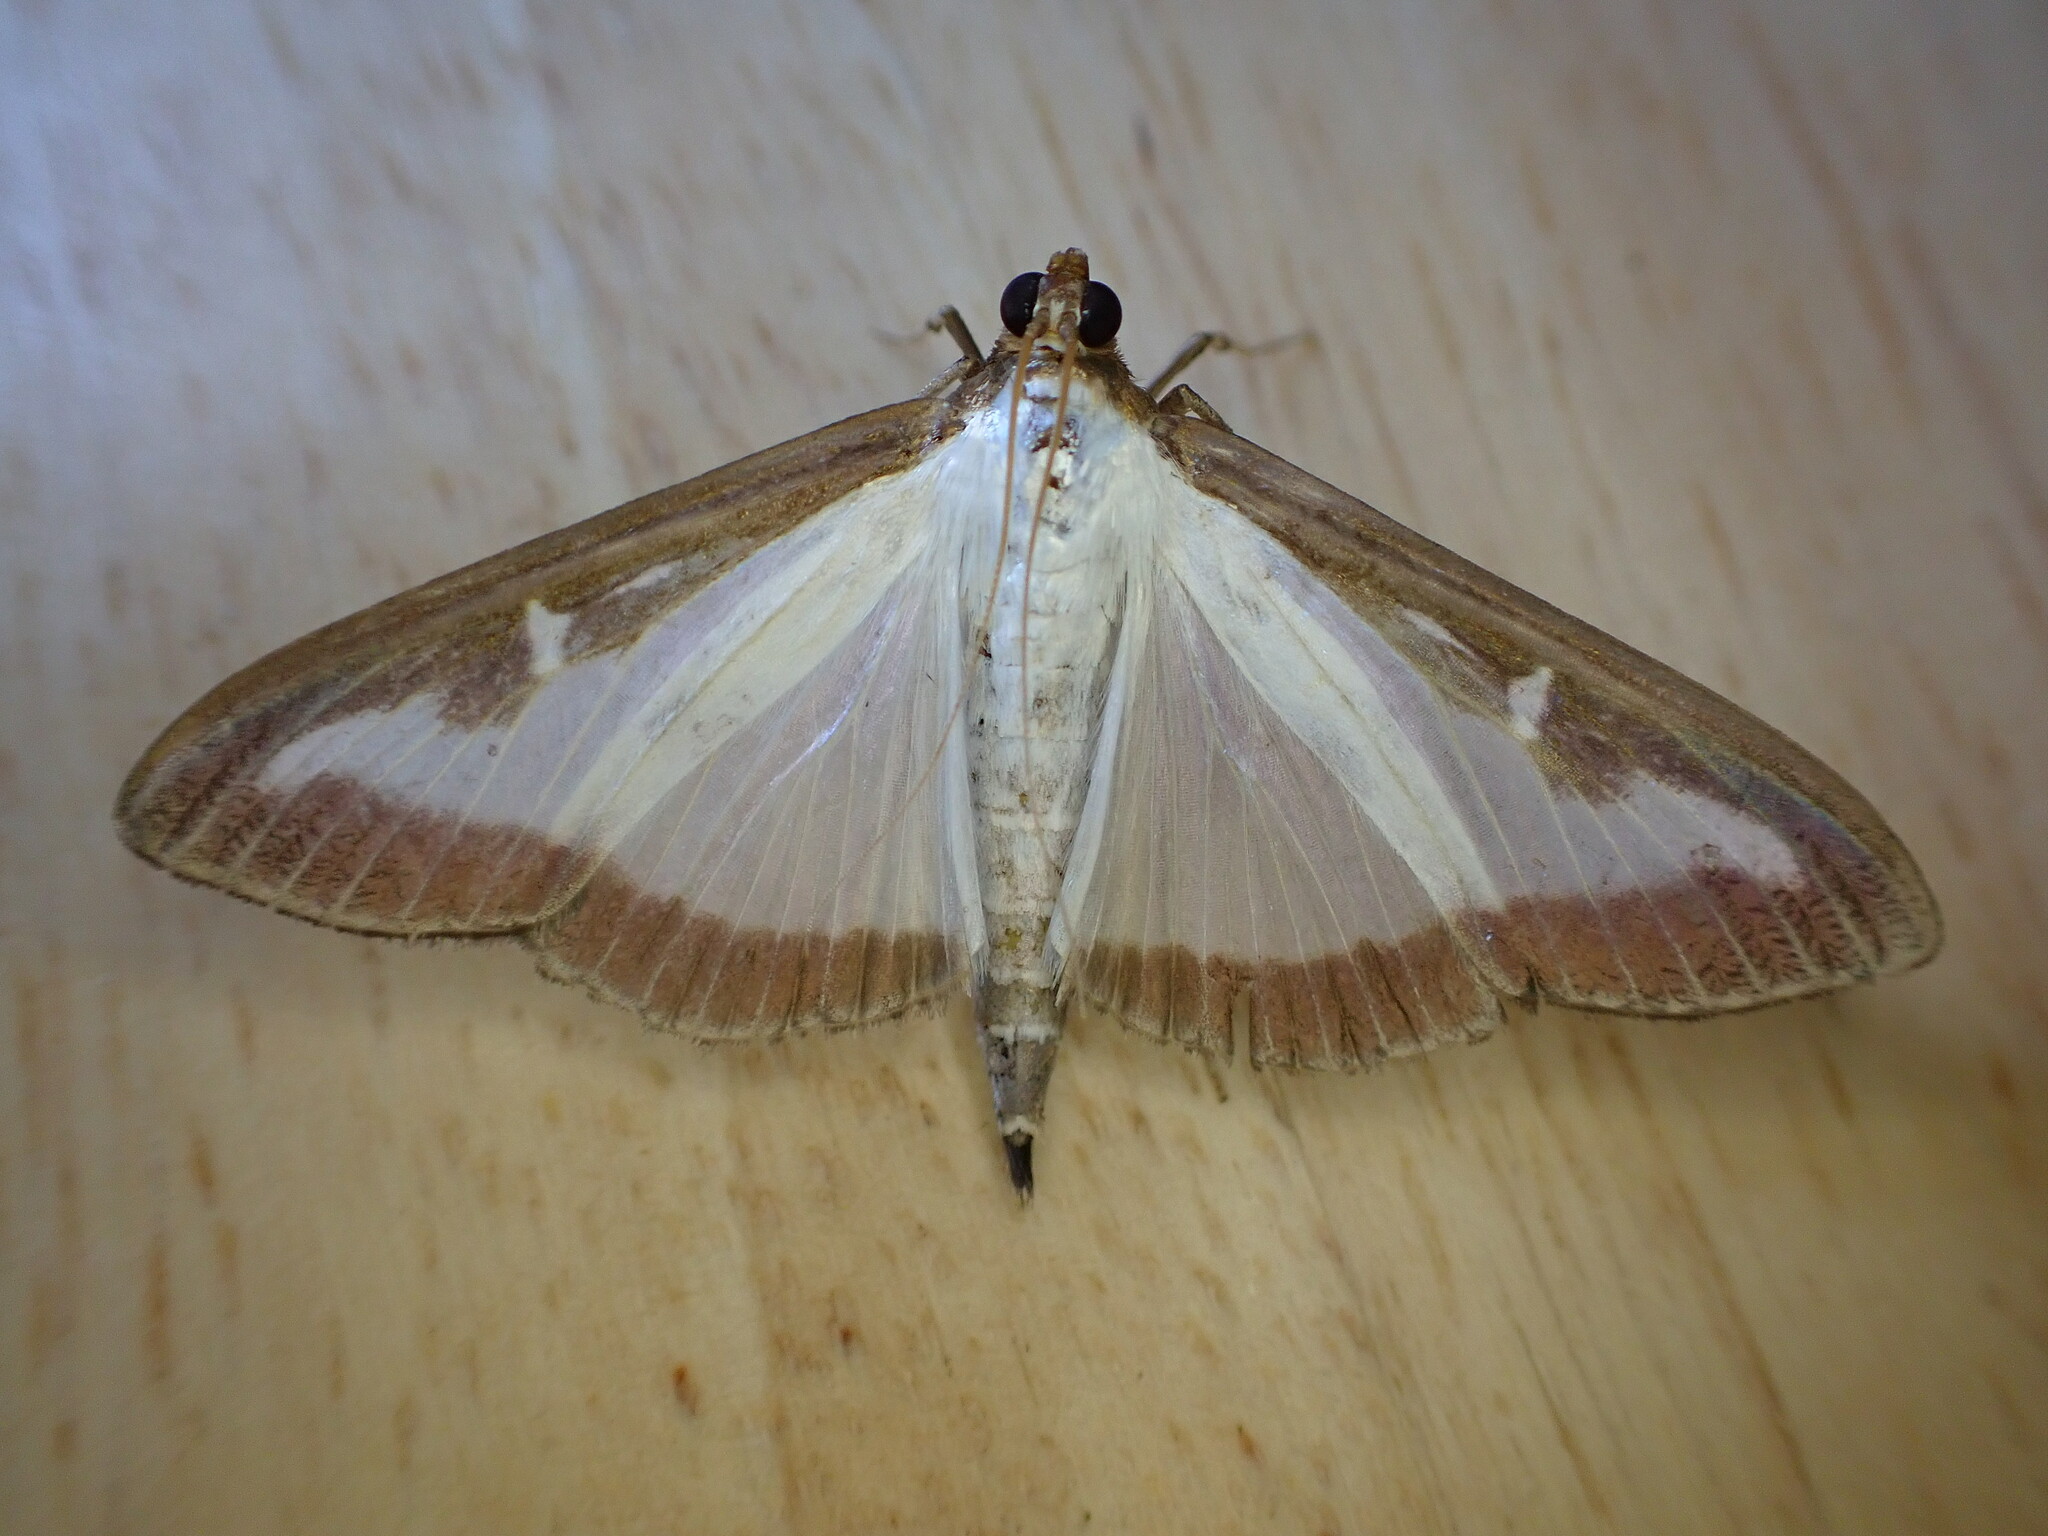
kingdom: Animalia
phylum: Arthropoda
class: Insecta
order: Lepidoptera
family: Crambidae
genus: Cydalima
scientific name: Cydalima perspectalis
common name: Box tree moth
